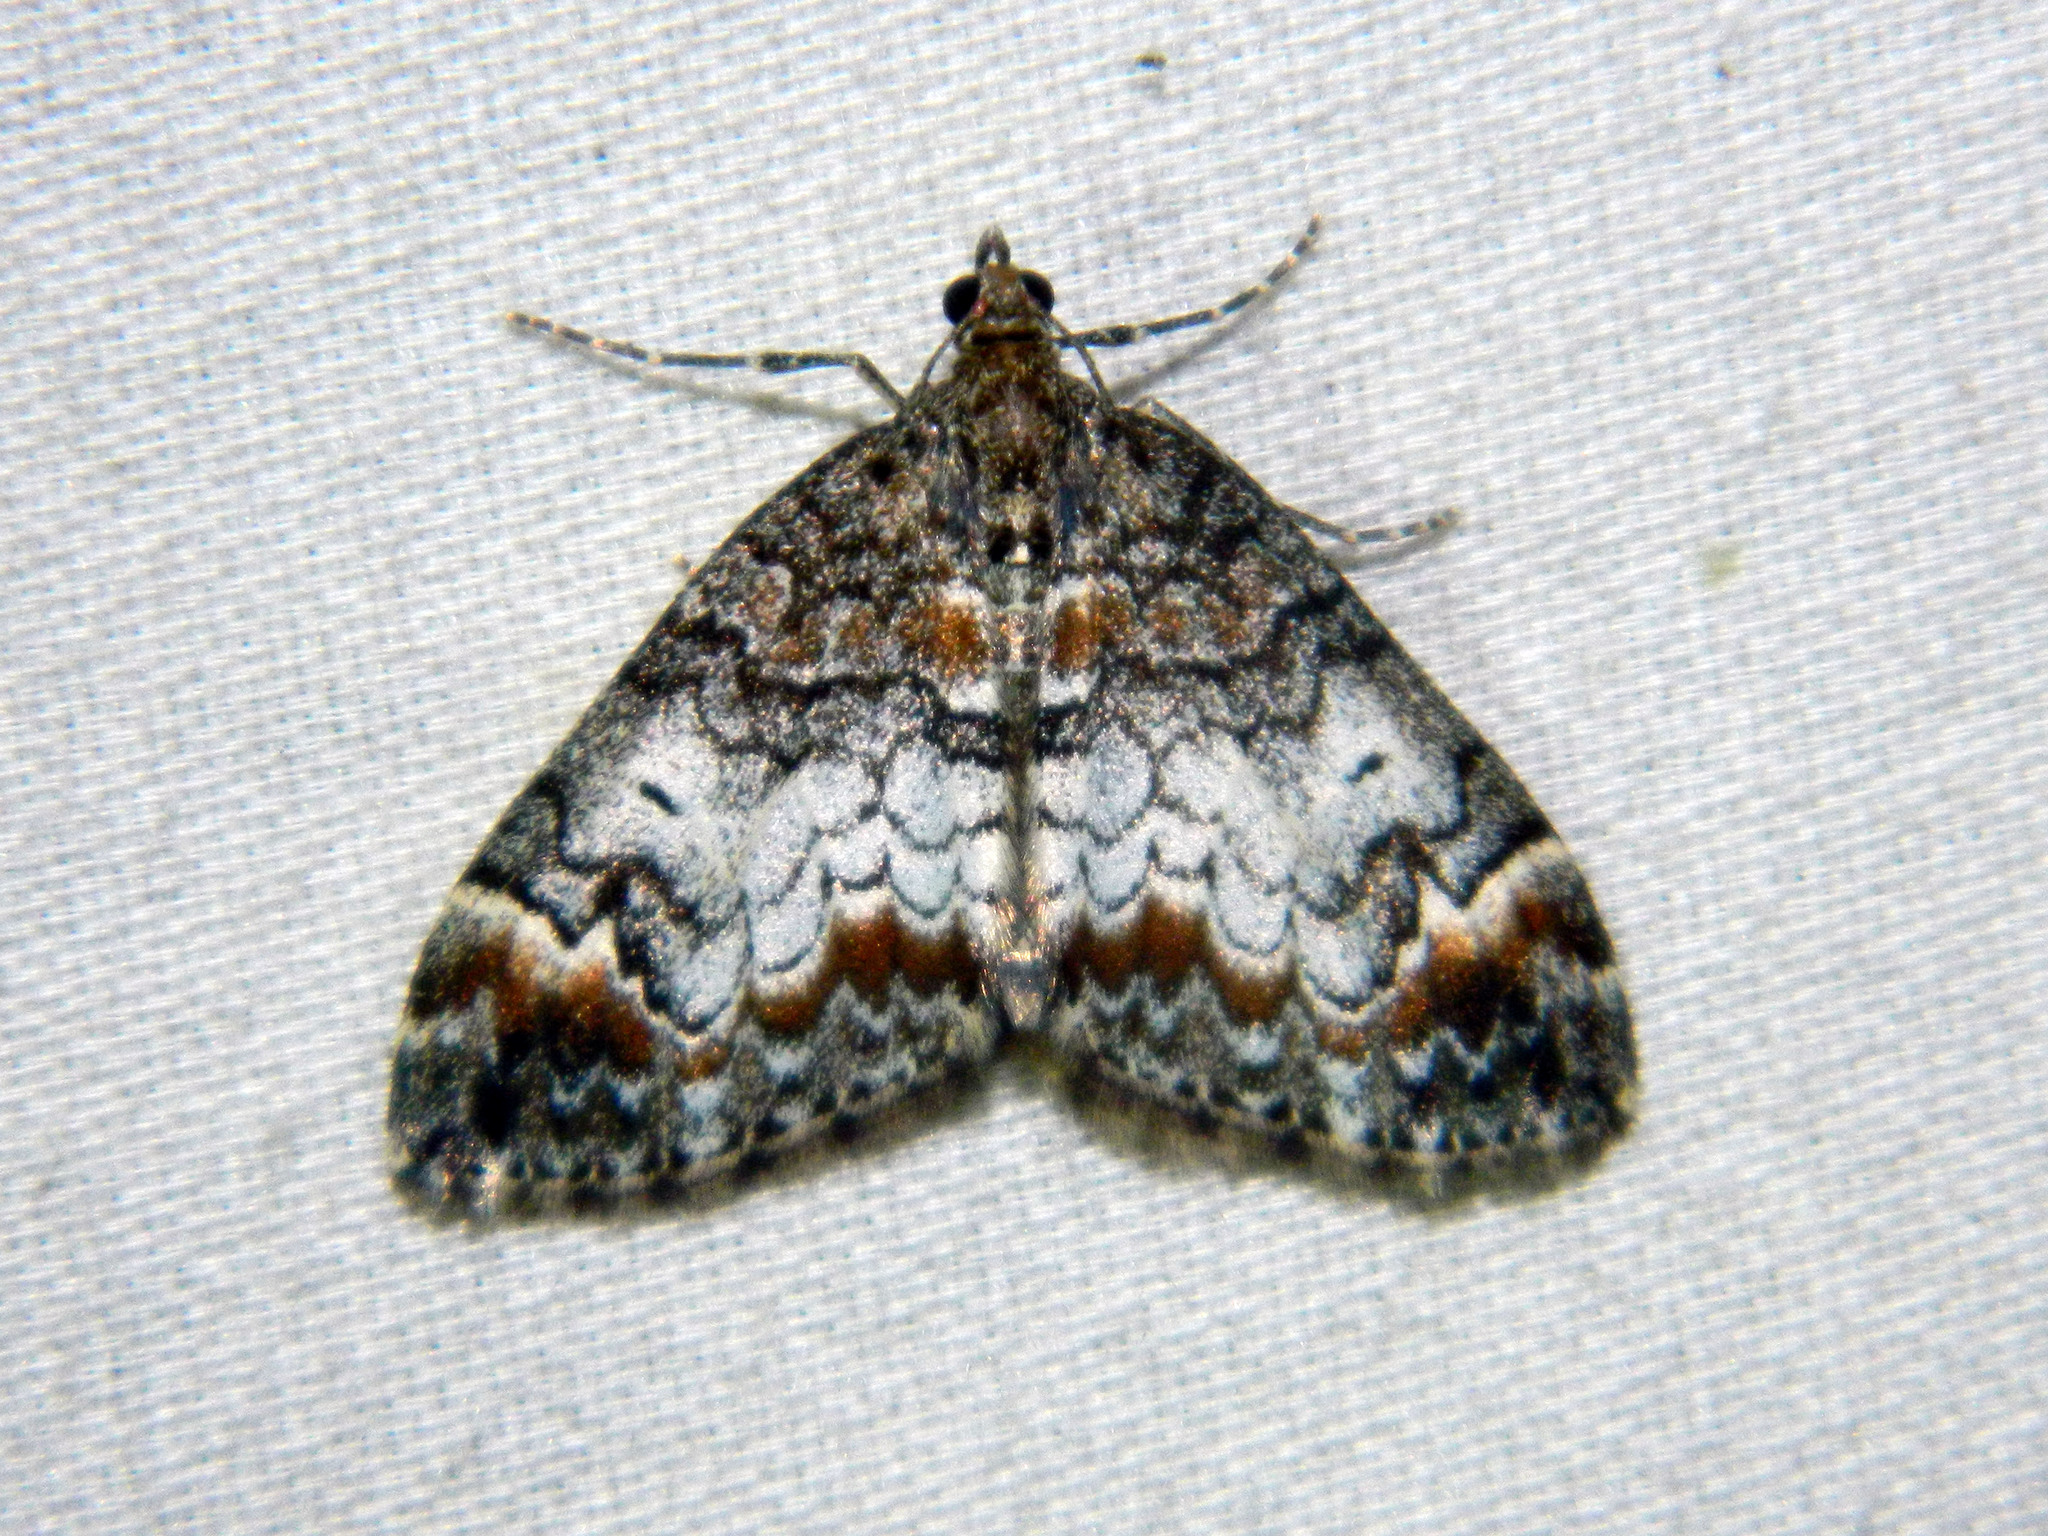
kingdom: Animalia
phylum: Arthropoda
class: Insecta
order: Lepidoptera
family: Geometridae
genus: Dysstroma
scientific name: Dysstroma truncata
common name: Common marbled carpet
